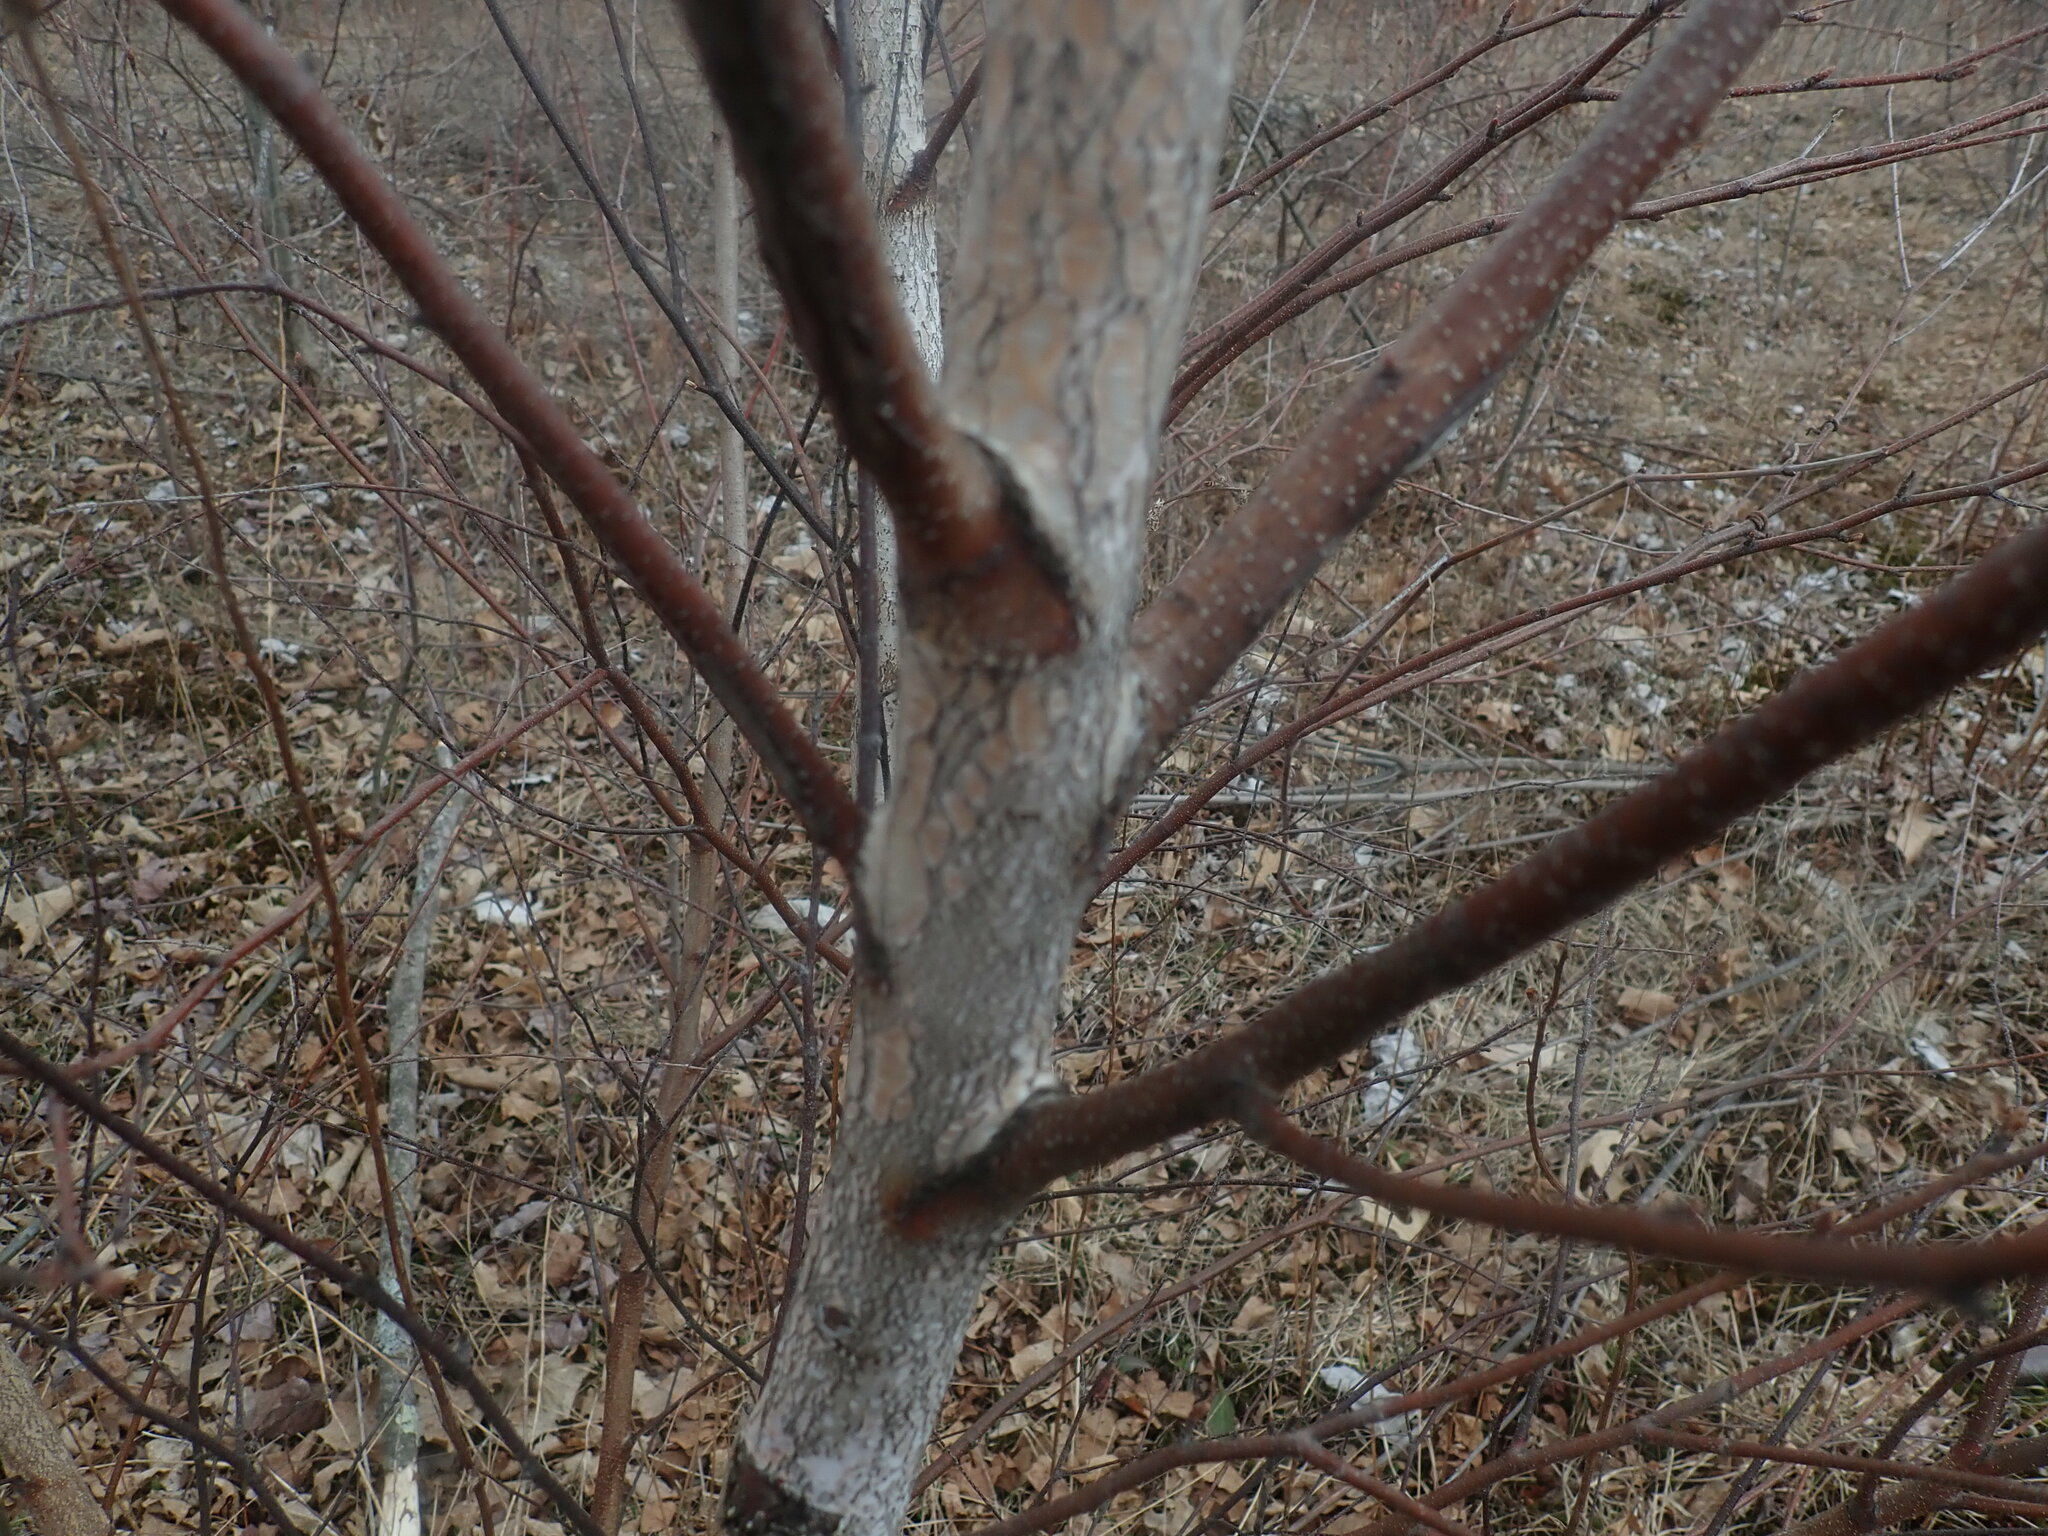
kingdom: Plantae
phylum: Tracheophyta
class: Magnoliopsida
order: Fagales
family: Betulaceae
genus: Betula
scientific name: Betula populifolia
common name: Fire birch
